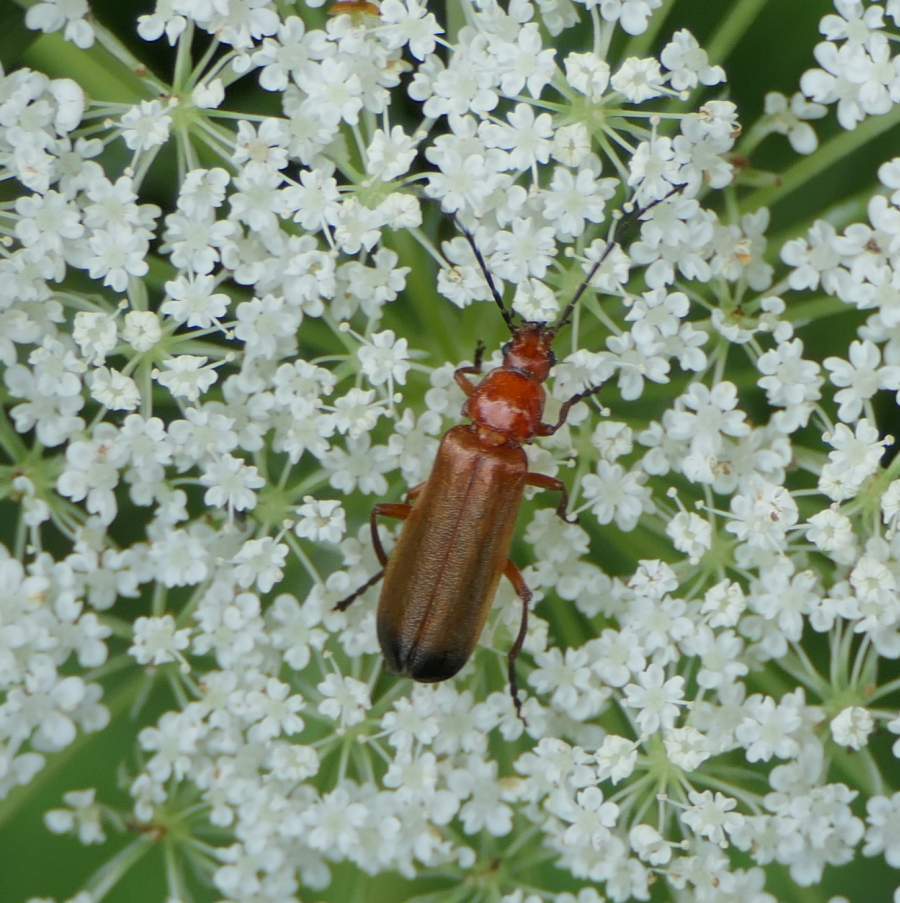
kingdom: Animalia
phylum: Arthropoda
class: Insecta
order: Coleoptera
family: Cantharidae
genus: Rhagonycha
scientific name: Rhagonycha fulva
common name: Common red soldier beetle
